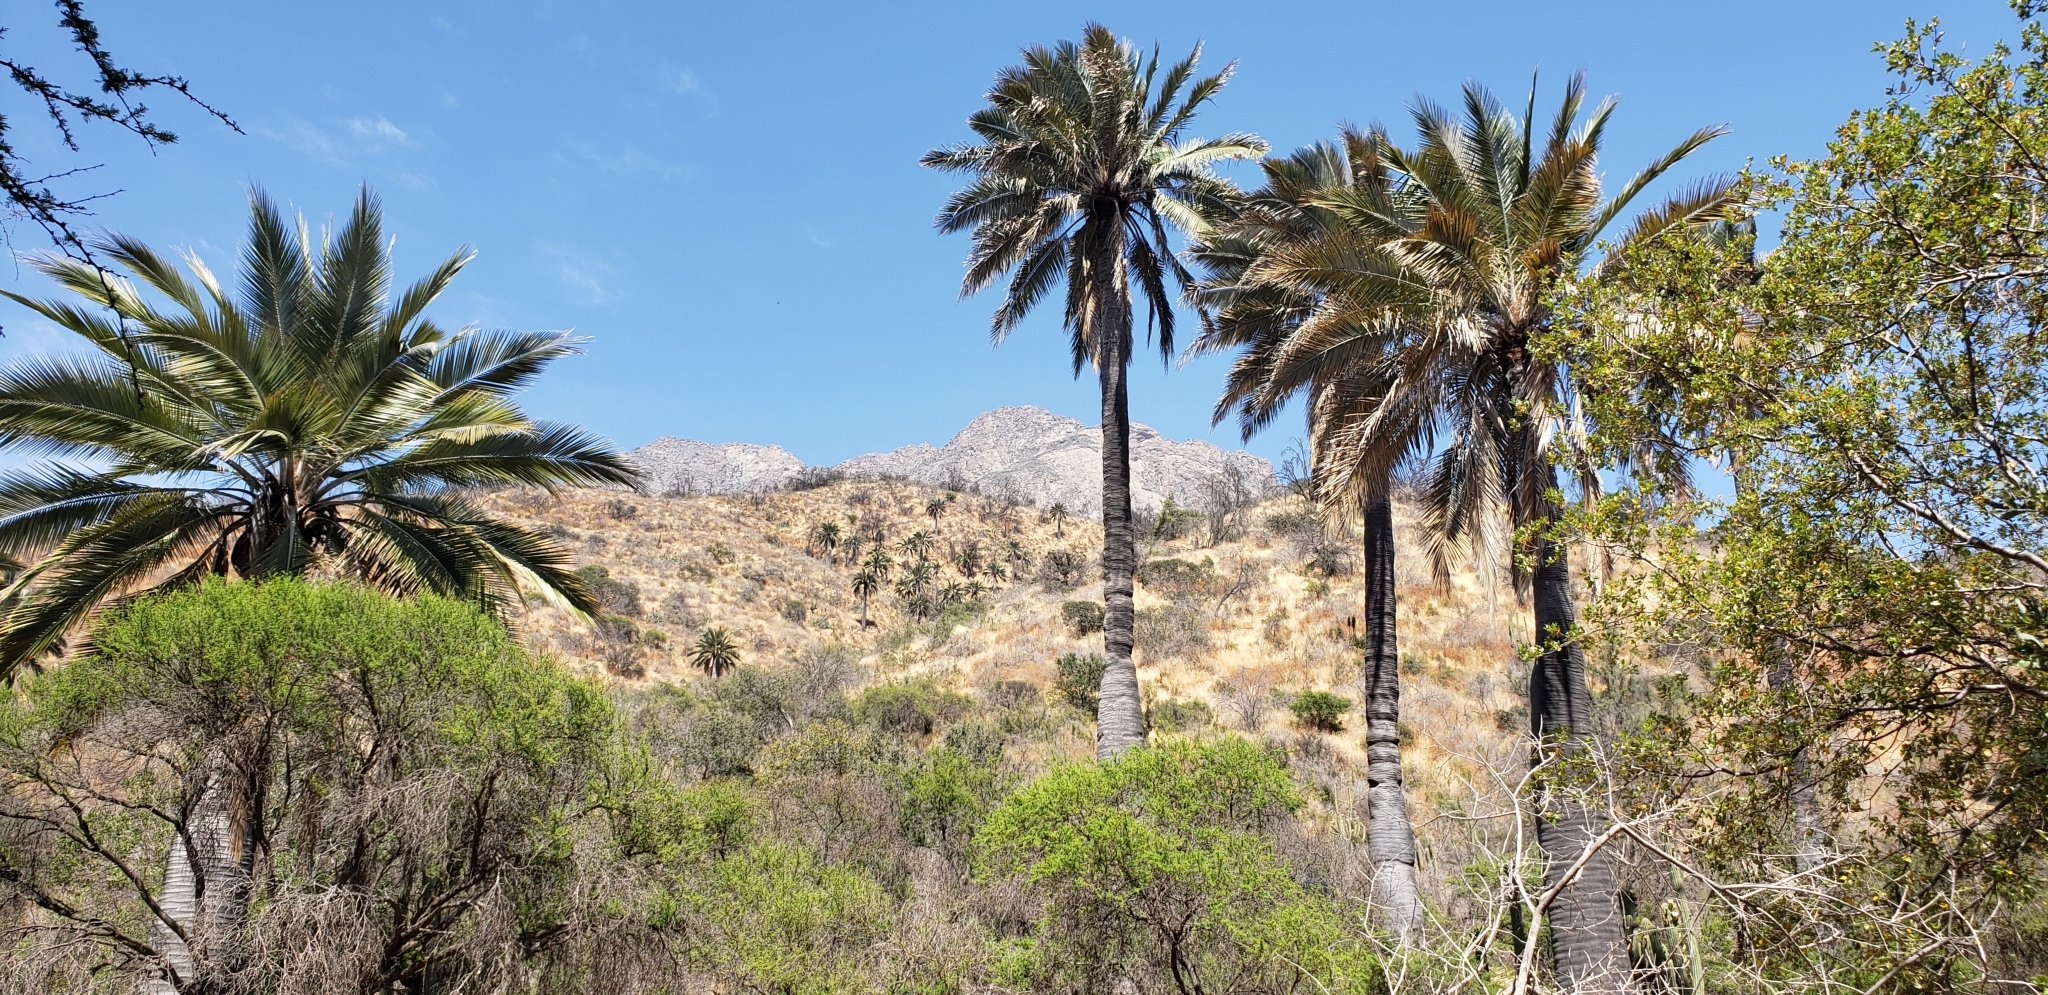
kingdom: Plantae
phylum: Tracheophyta
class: Liliopsida
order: Arecales
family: Arecaceae
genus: Jubaea
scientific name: Jubaea chilensis
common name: Coquito palm
